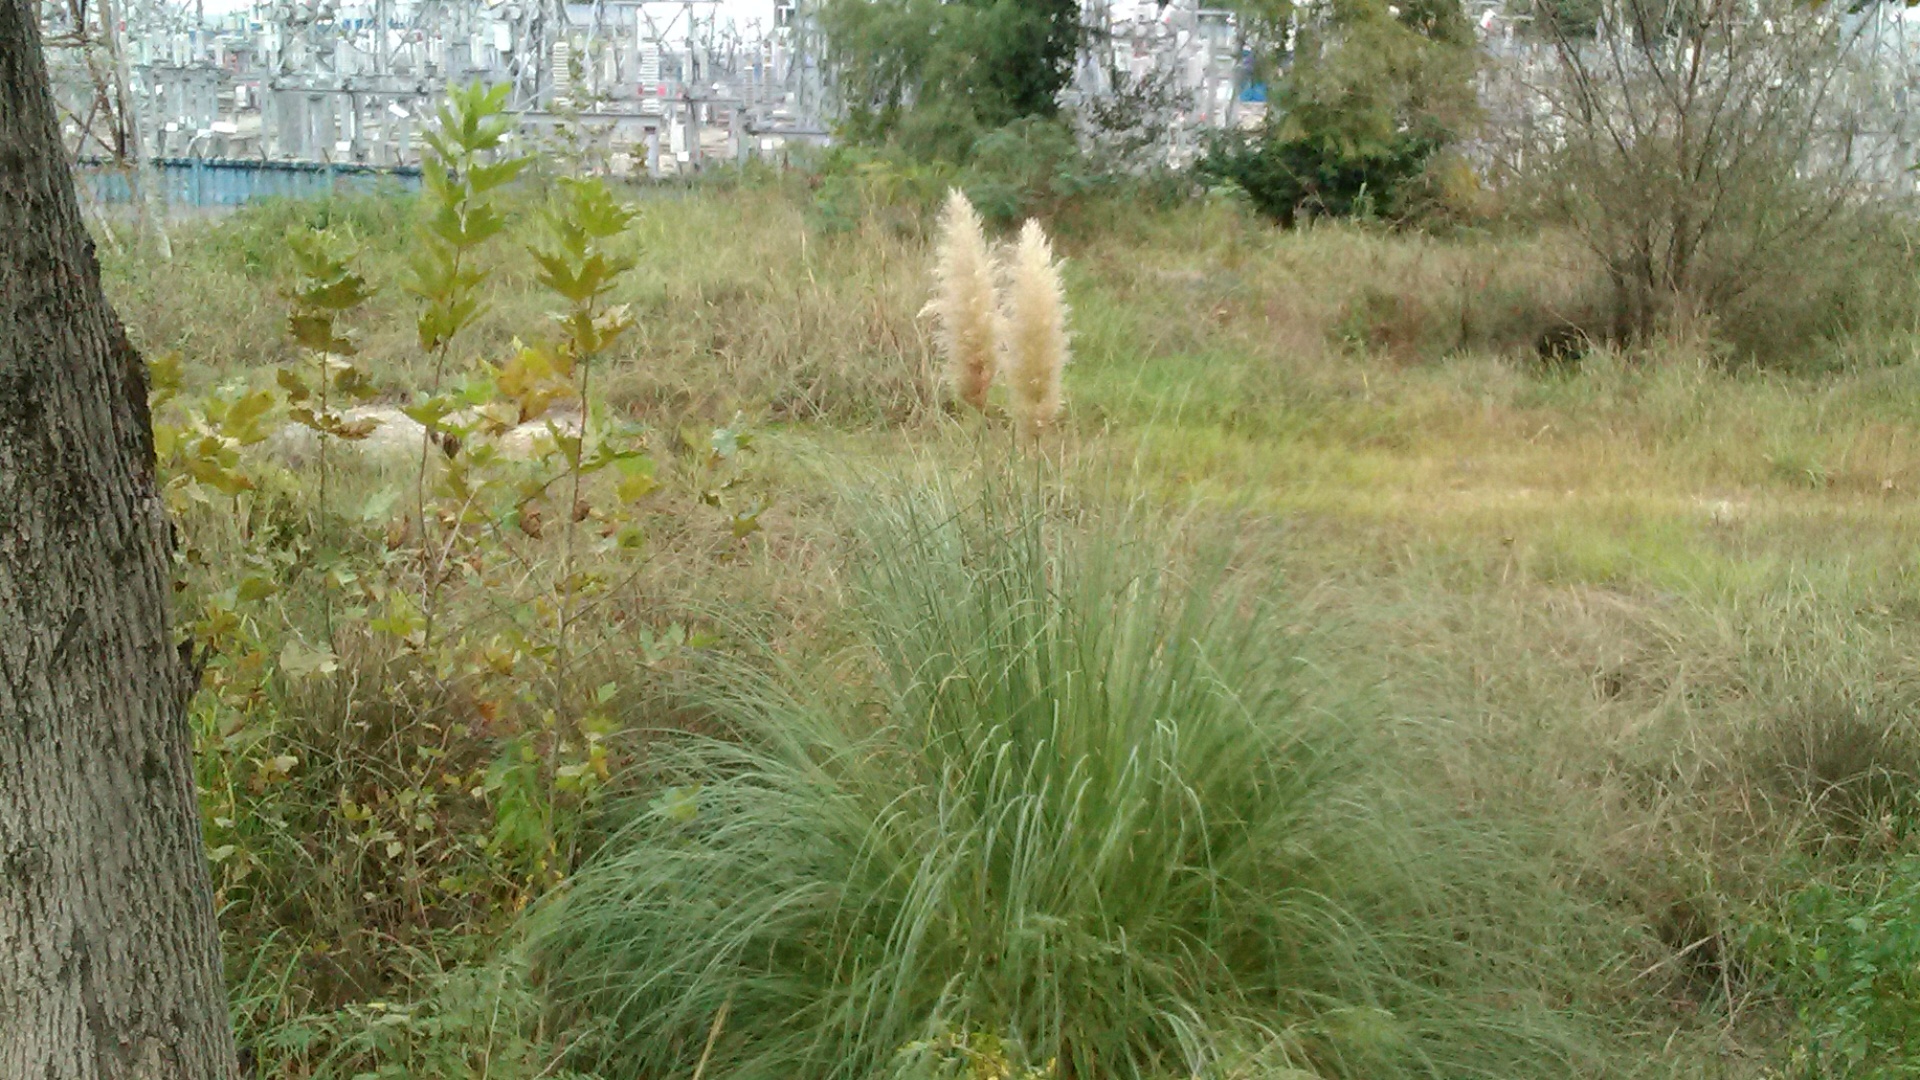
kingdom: Plantae
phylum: Tracheophyta
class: Liliopsida
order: Poales
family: Poaceae
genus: Cortaderia
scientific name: Cortaderia selloana
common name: Uruguayan pampas grass
